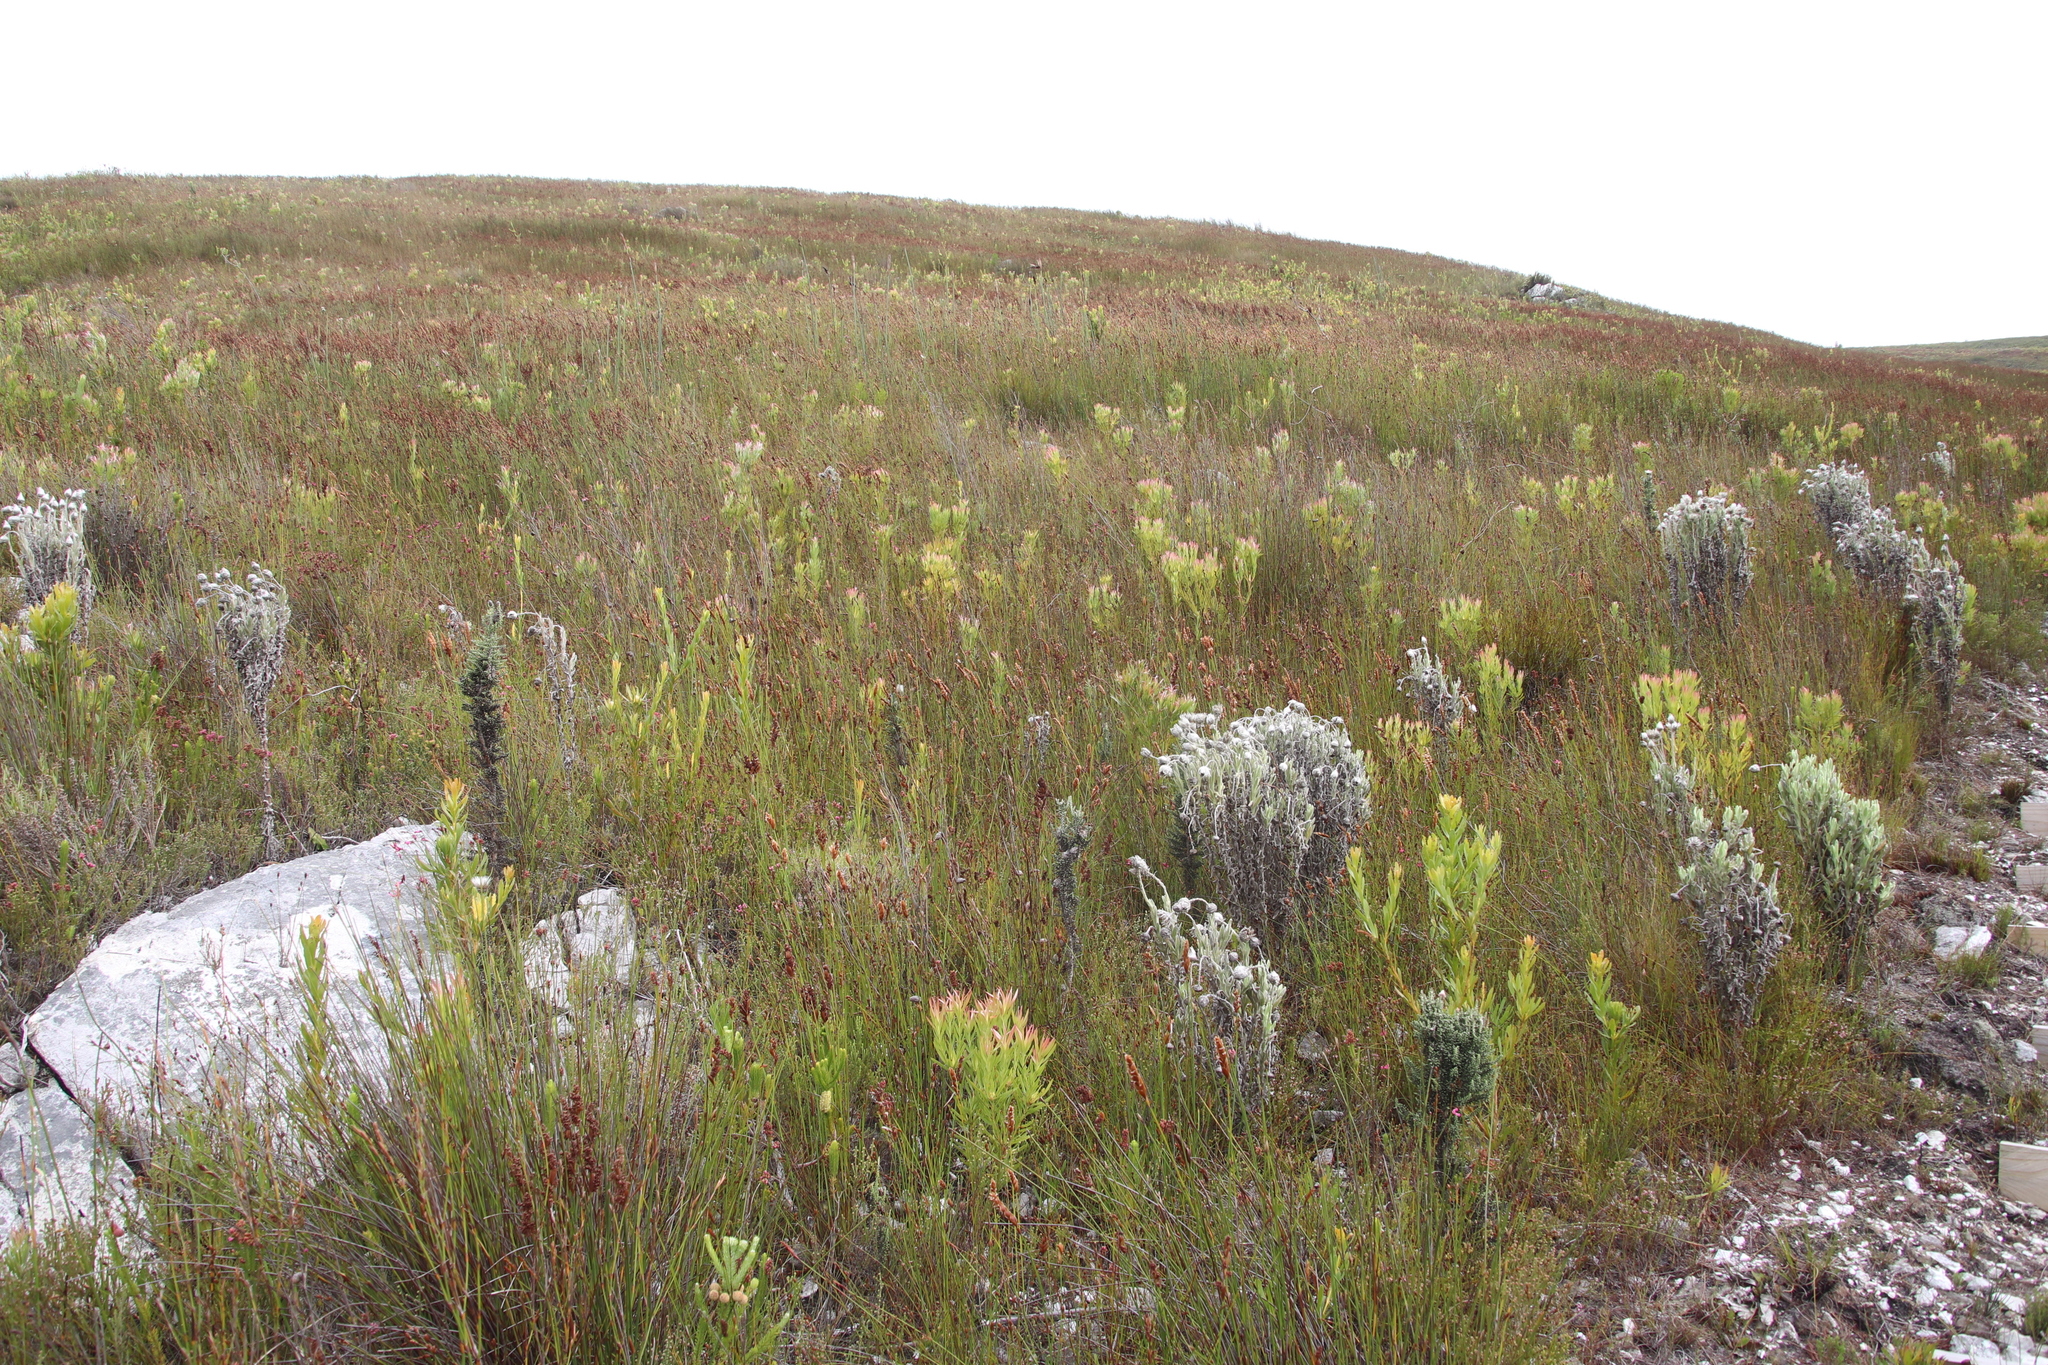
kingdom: Plantae
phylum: Tracheophyta
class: Magnoliopsida
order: Proteales
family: Proteaceae
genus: Leucadendron
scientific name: Leucadendron xanthoconus
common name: Sickle-leaf conebush
